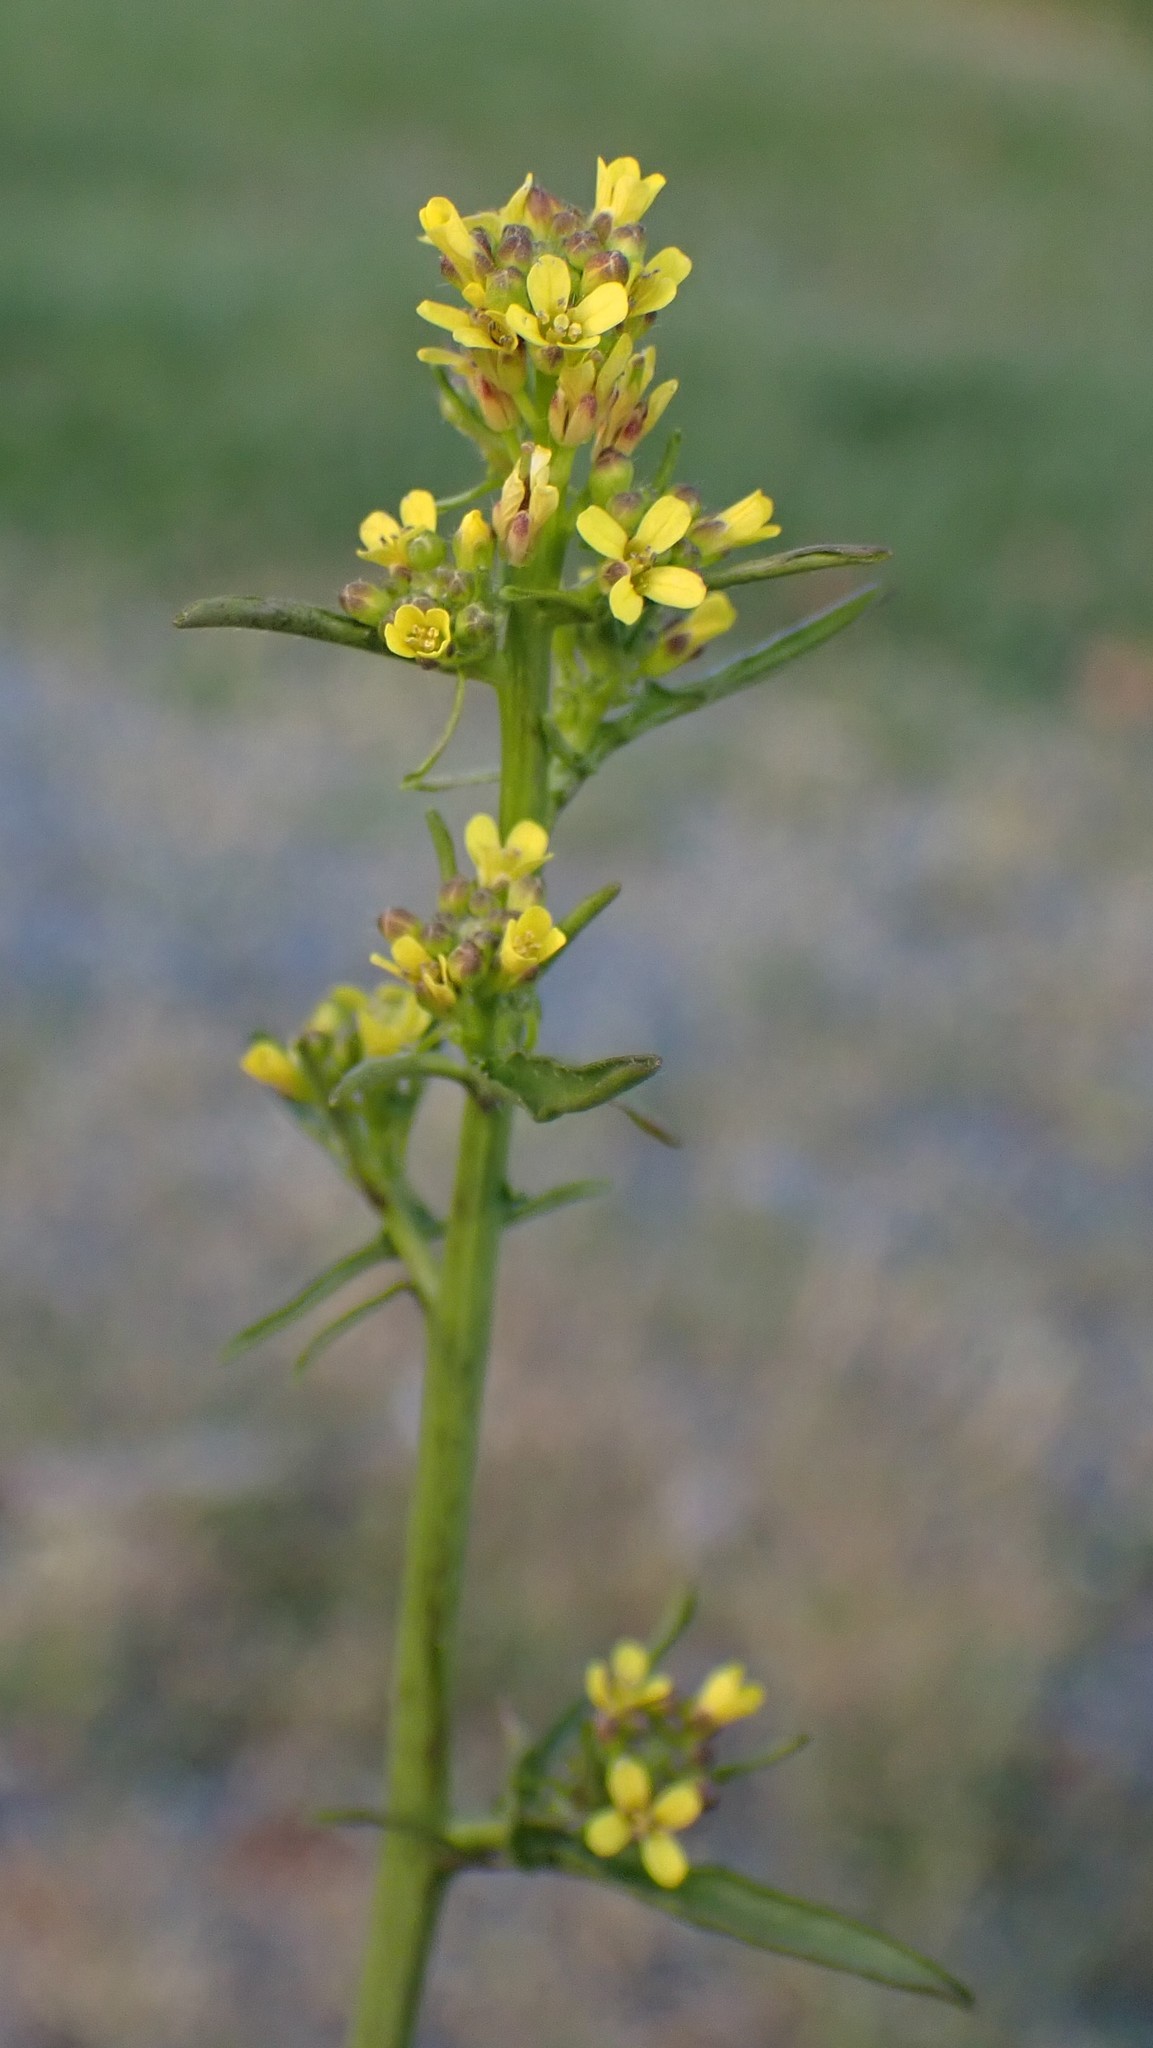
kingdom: Plantae
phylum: Tracheophyta
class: Magnoliopsida
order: Brassicales
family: Brassicaceae
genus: Sisymbrium
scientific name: Sisymbrium officinale
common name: Hedge mustard
